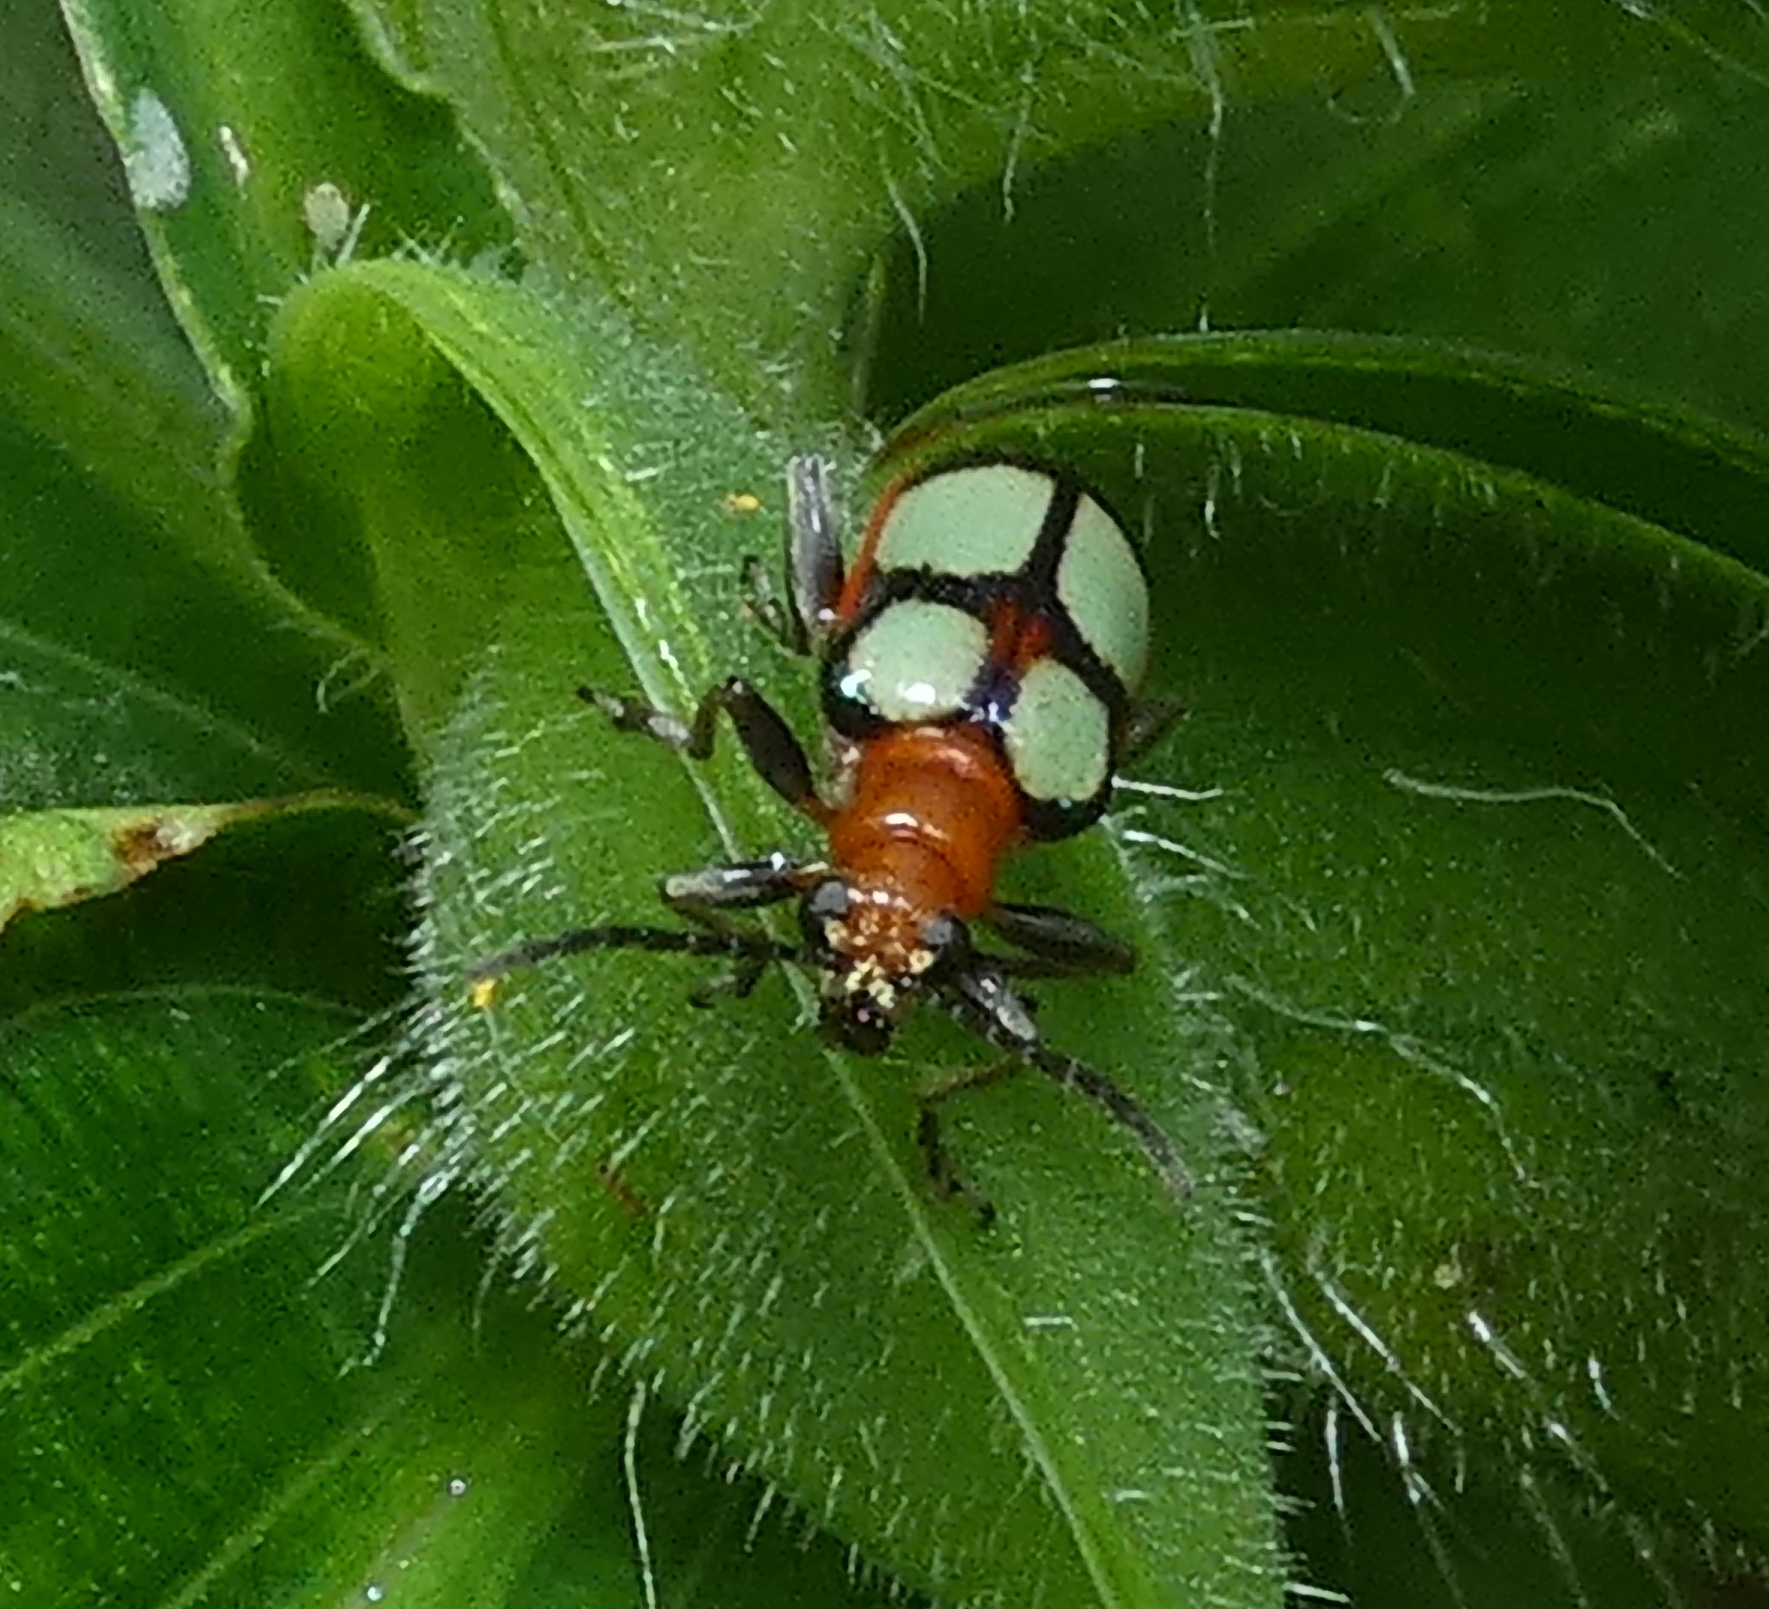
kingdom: Animalia
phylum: Arthropoda
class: Insecta
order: Coleoptera
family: Chrysomelidae
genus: Neolema
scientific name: Neolema
